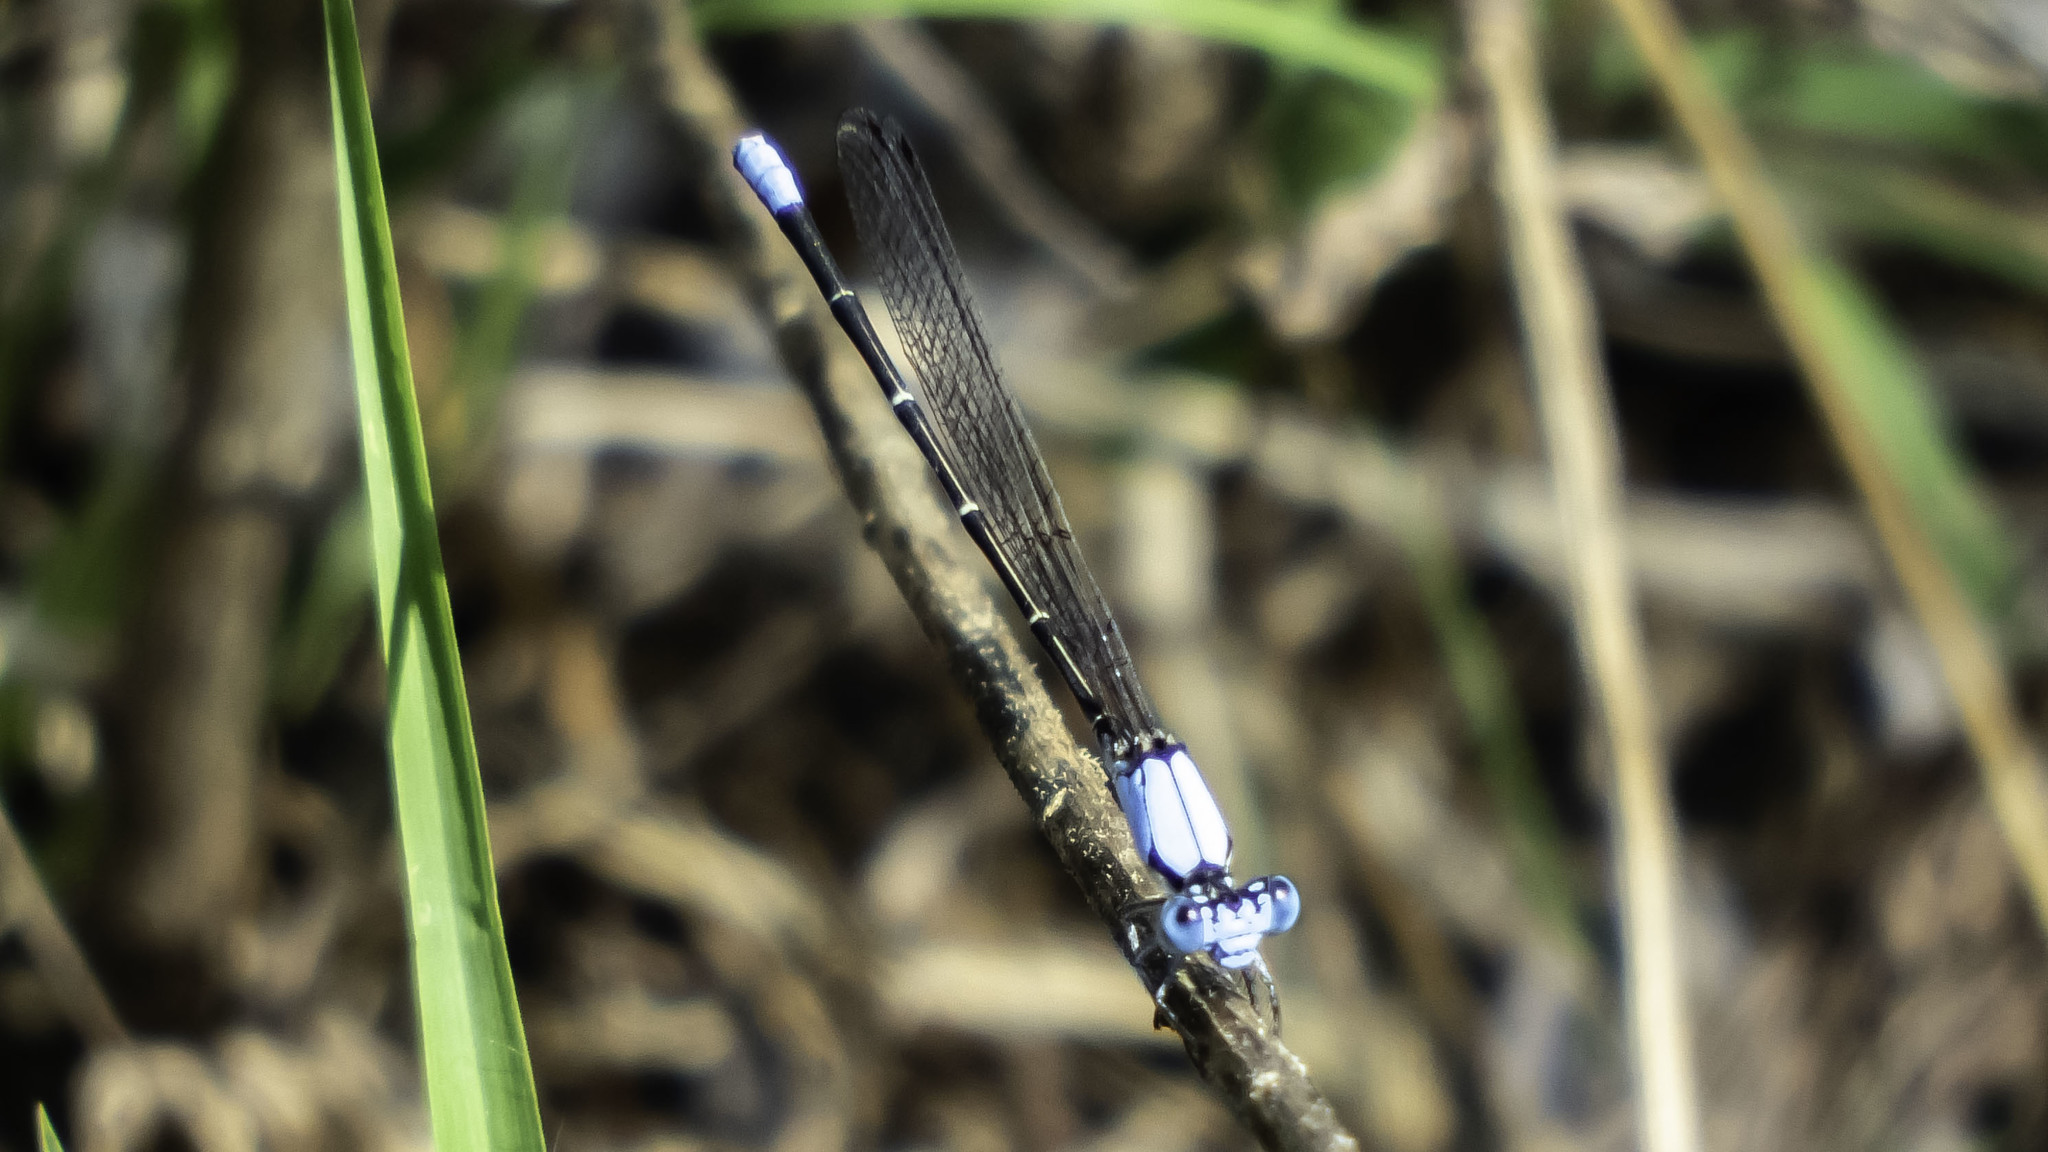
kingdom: Animalia
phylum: Arthropoda
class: Insecta
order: Odonata
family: Coenagrionidae
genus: Argia
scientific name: Argia apicalis
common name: Blue-fronted dancer
